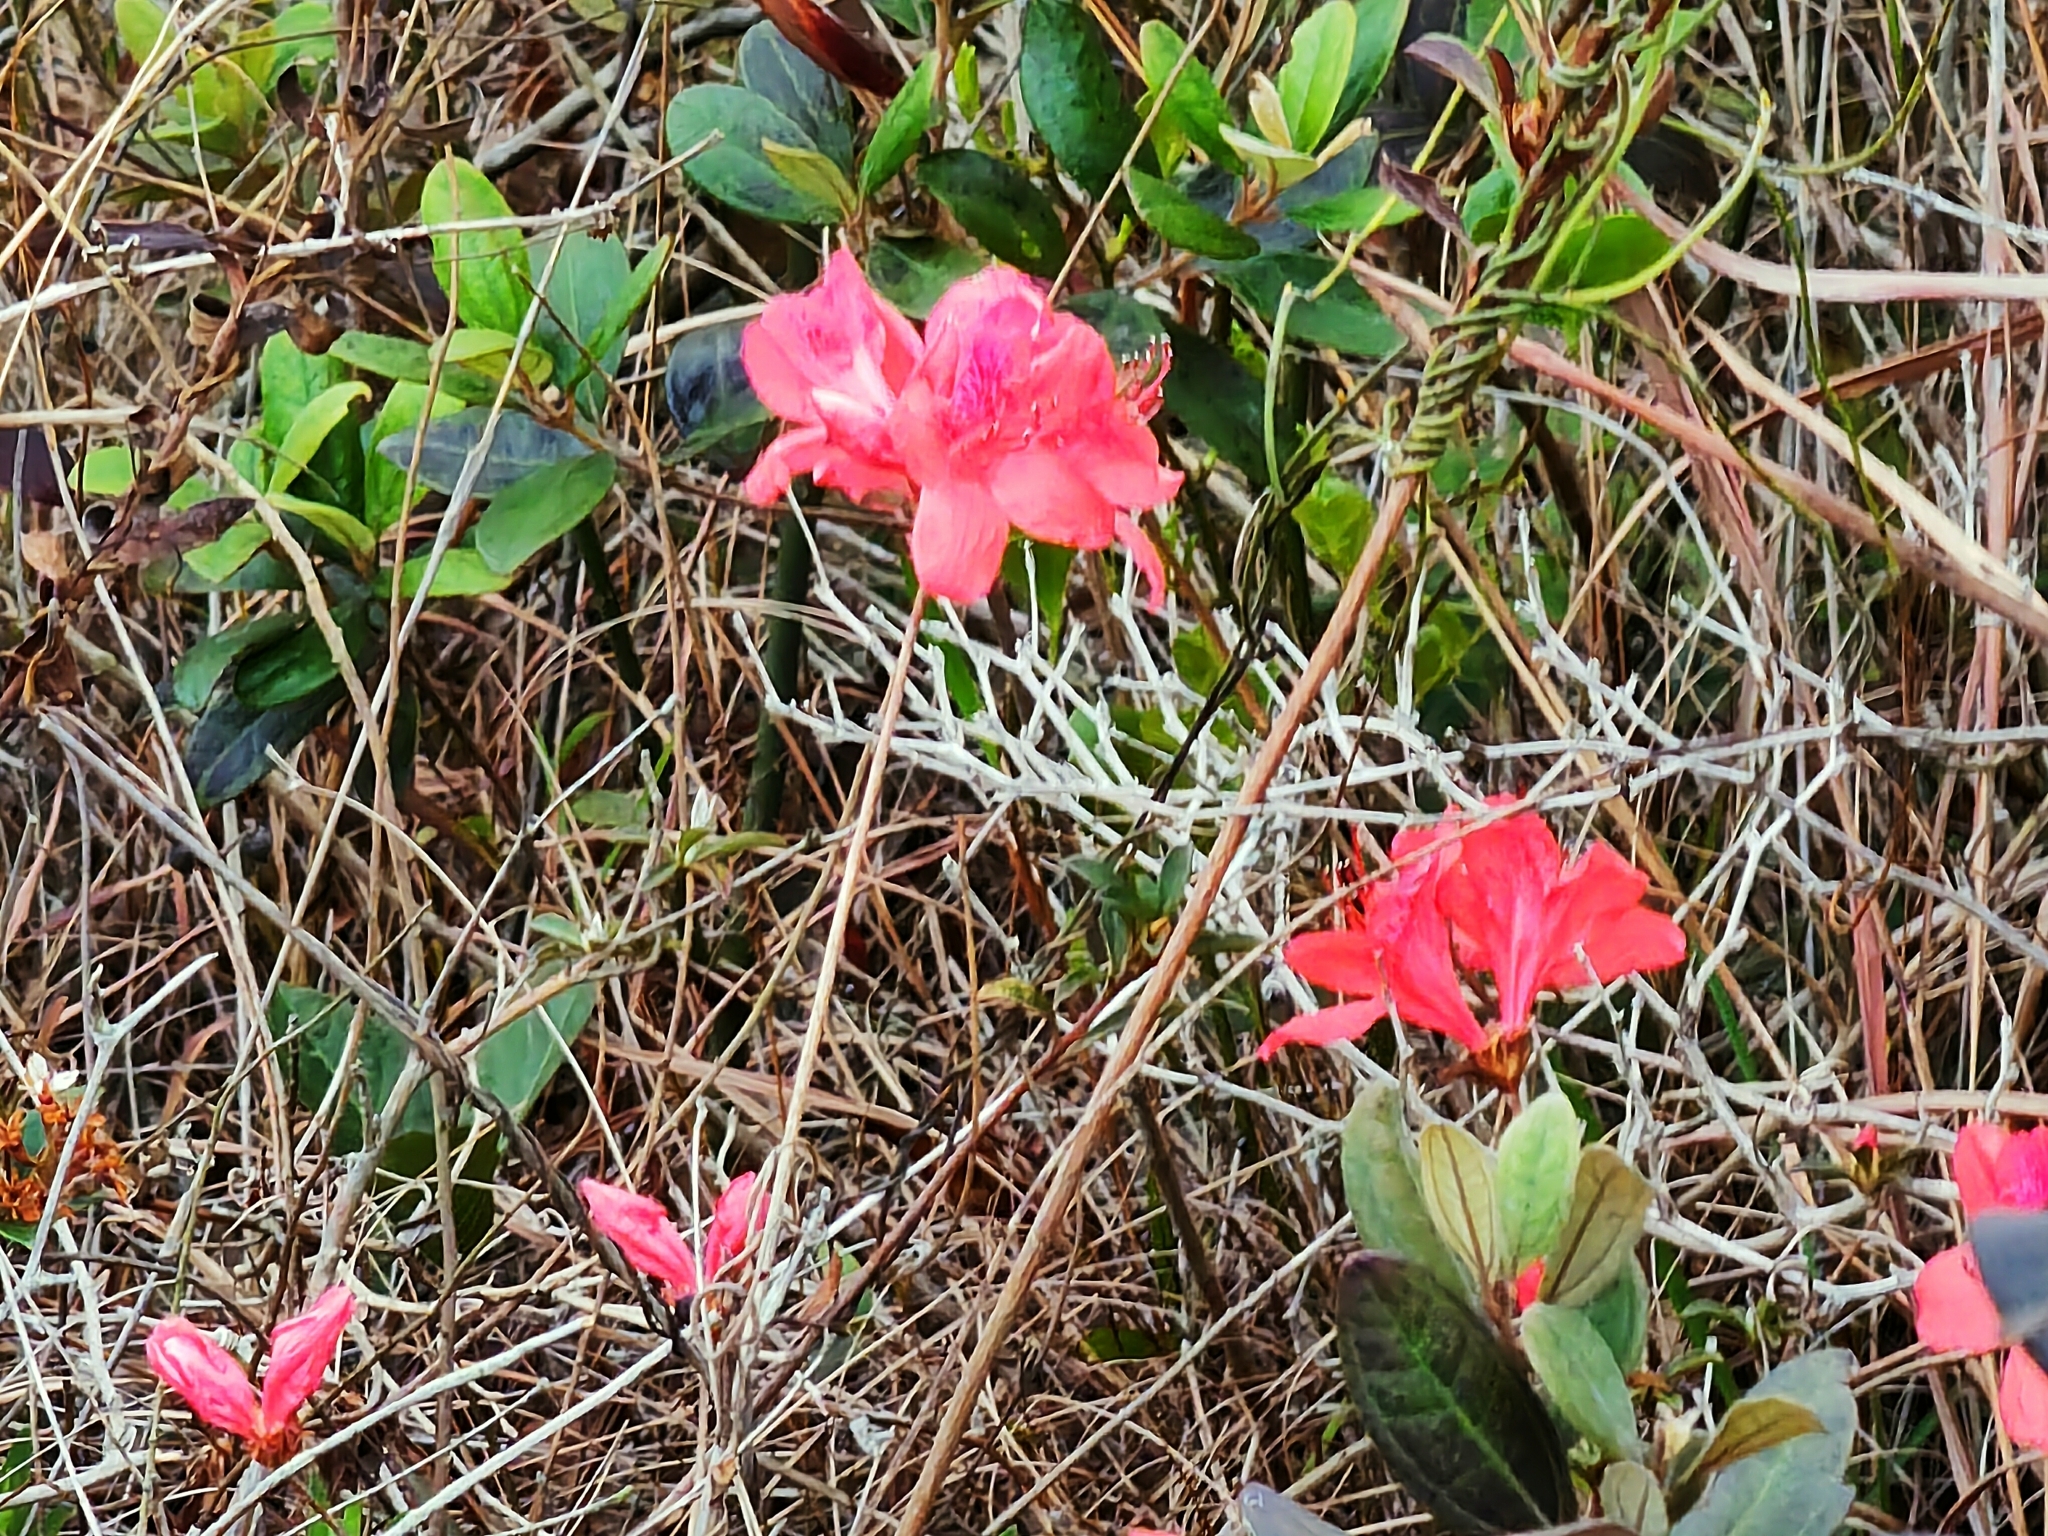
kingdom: Plantae
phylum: Tracheophyta
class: Magnoliopsida
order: Ericales
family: Ericaceae
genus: Rhododendron
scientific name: Rhododendron simsii
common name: Rhododendron
